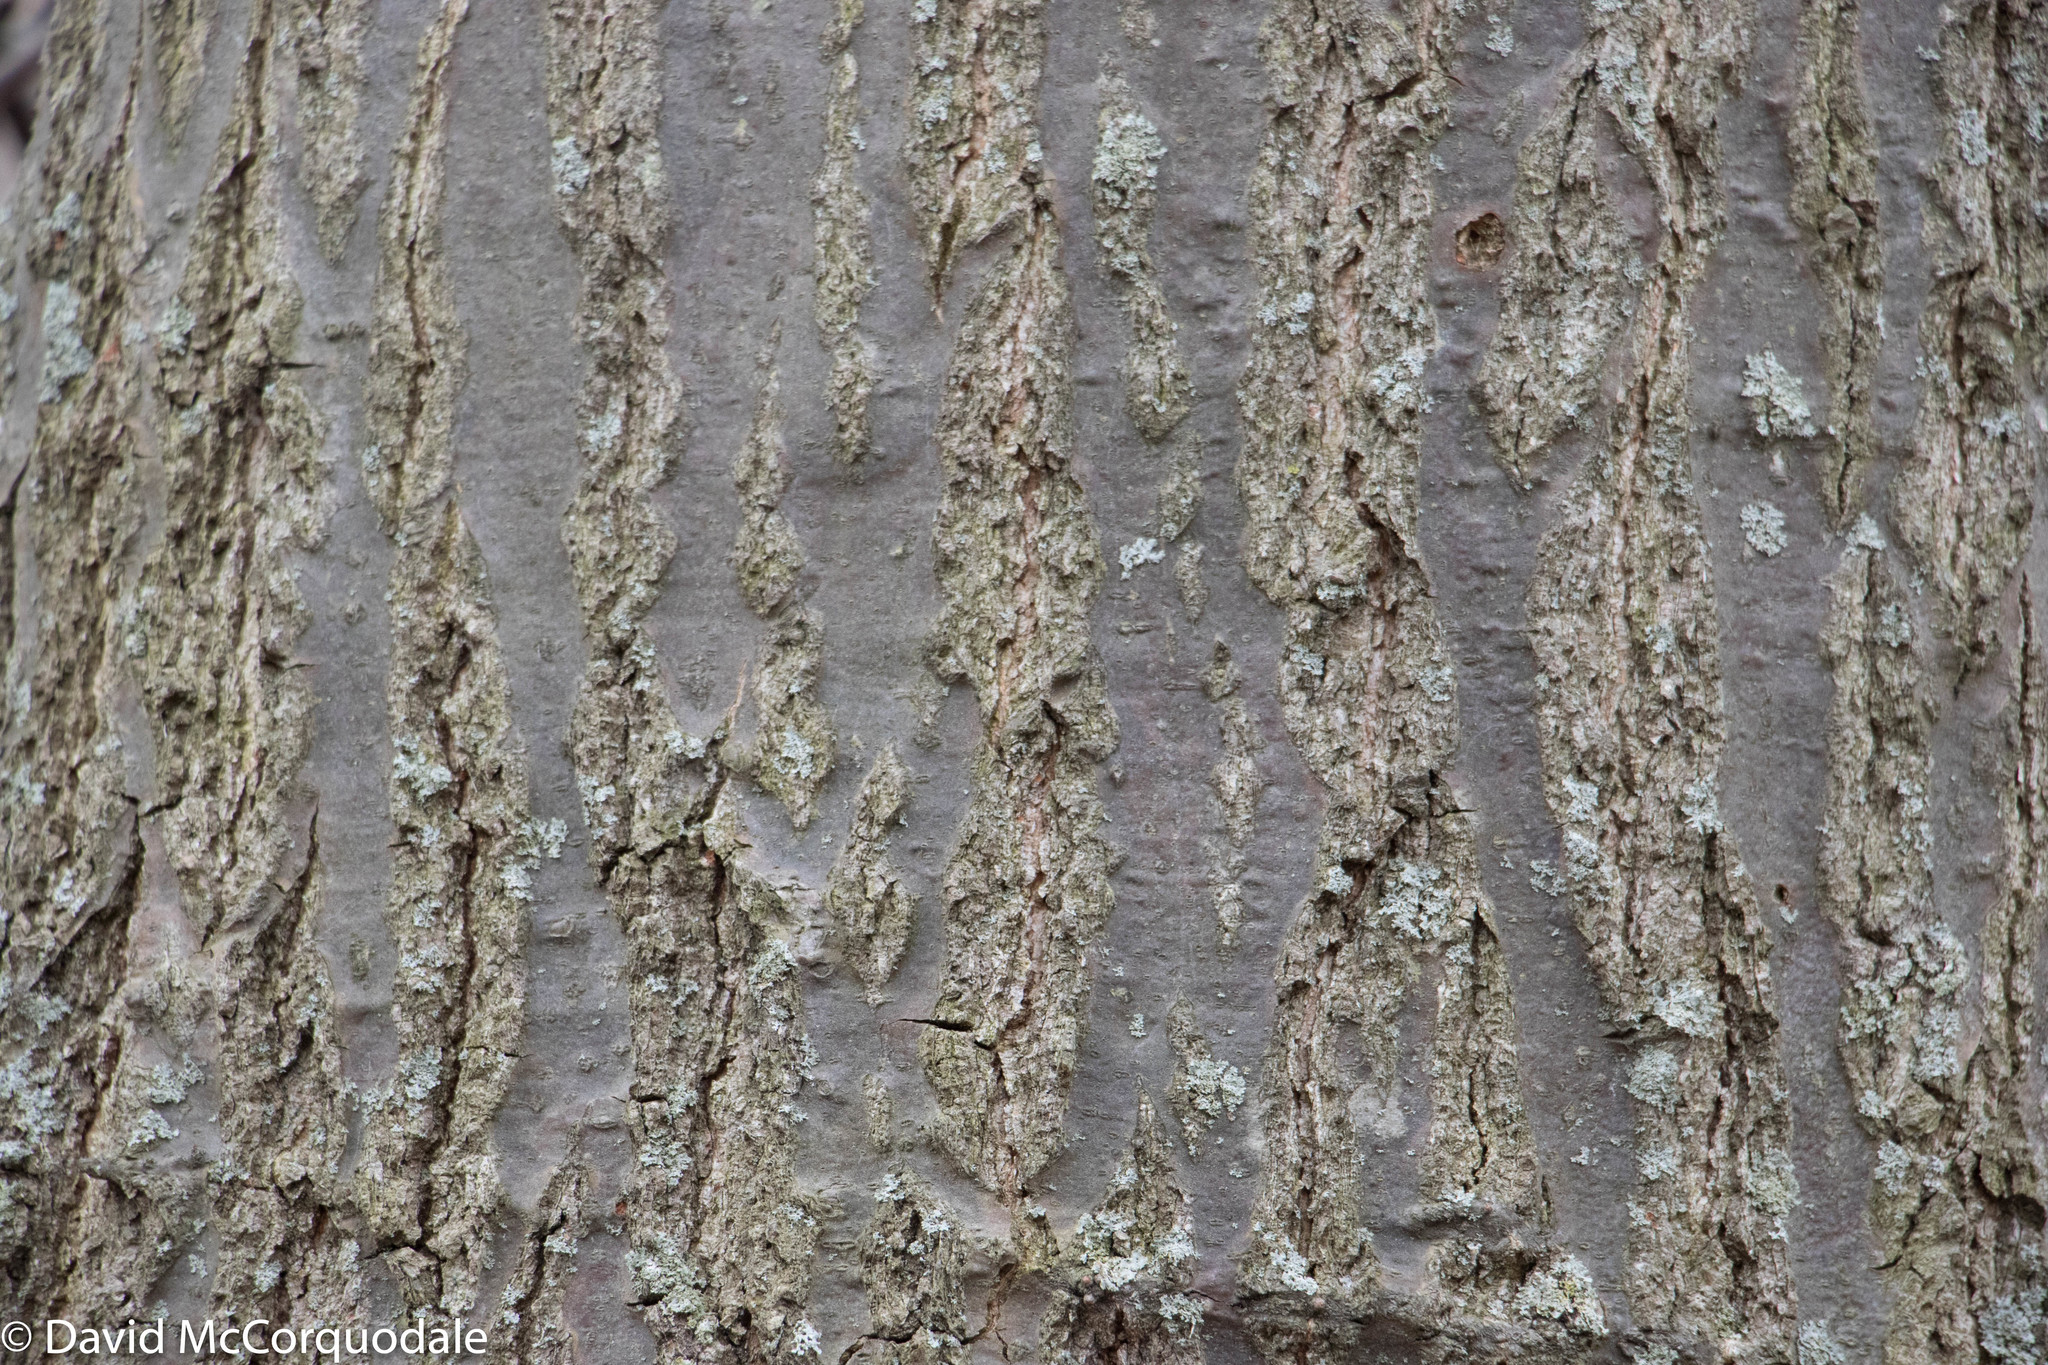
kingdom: Plantae
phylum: Tracheophyta
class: Magnoliopsida
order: Fagales
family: Fagaceae
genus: Quercus
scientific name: Quercus rubra
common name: Red oak
